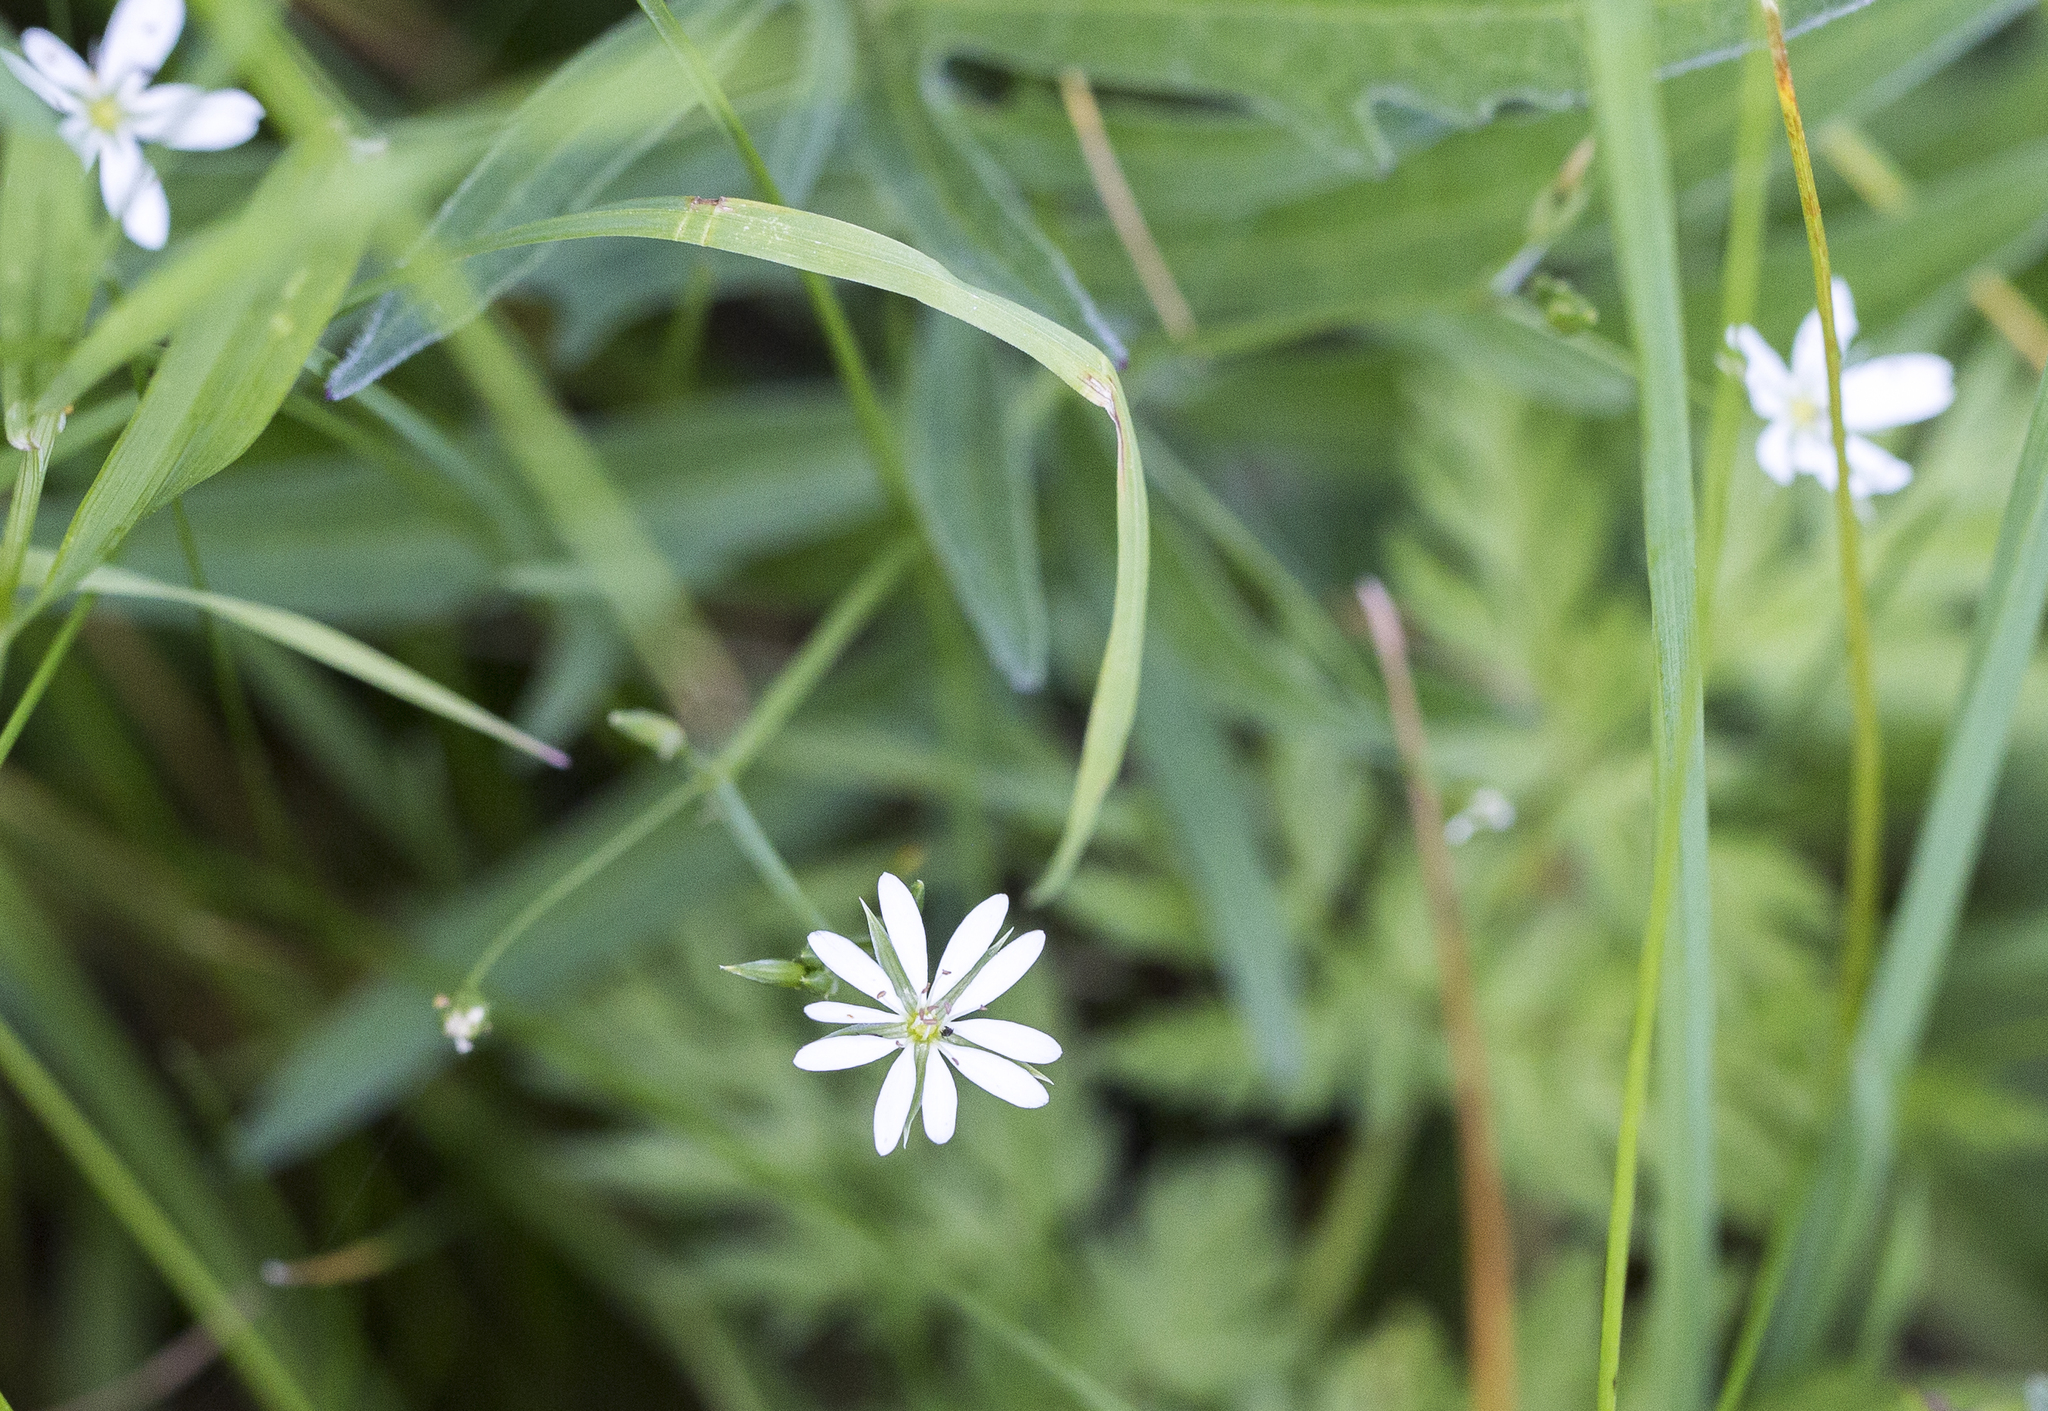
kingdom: Plantae
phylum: Tracheophyta
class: Magnoliopsida
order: Caryophyllales
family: Caryophyllaceae
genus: Stellaria
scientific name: Stellaria graminea
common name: Grass-like starwort
